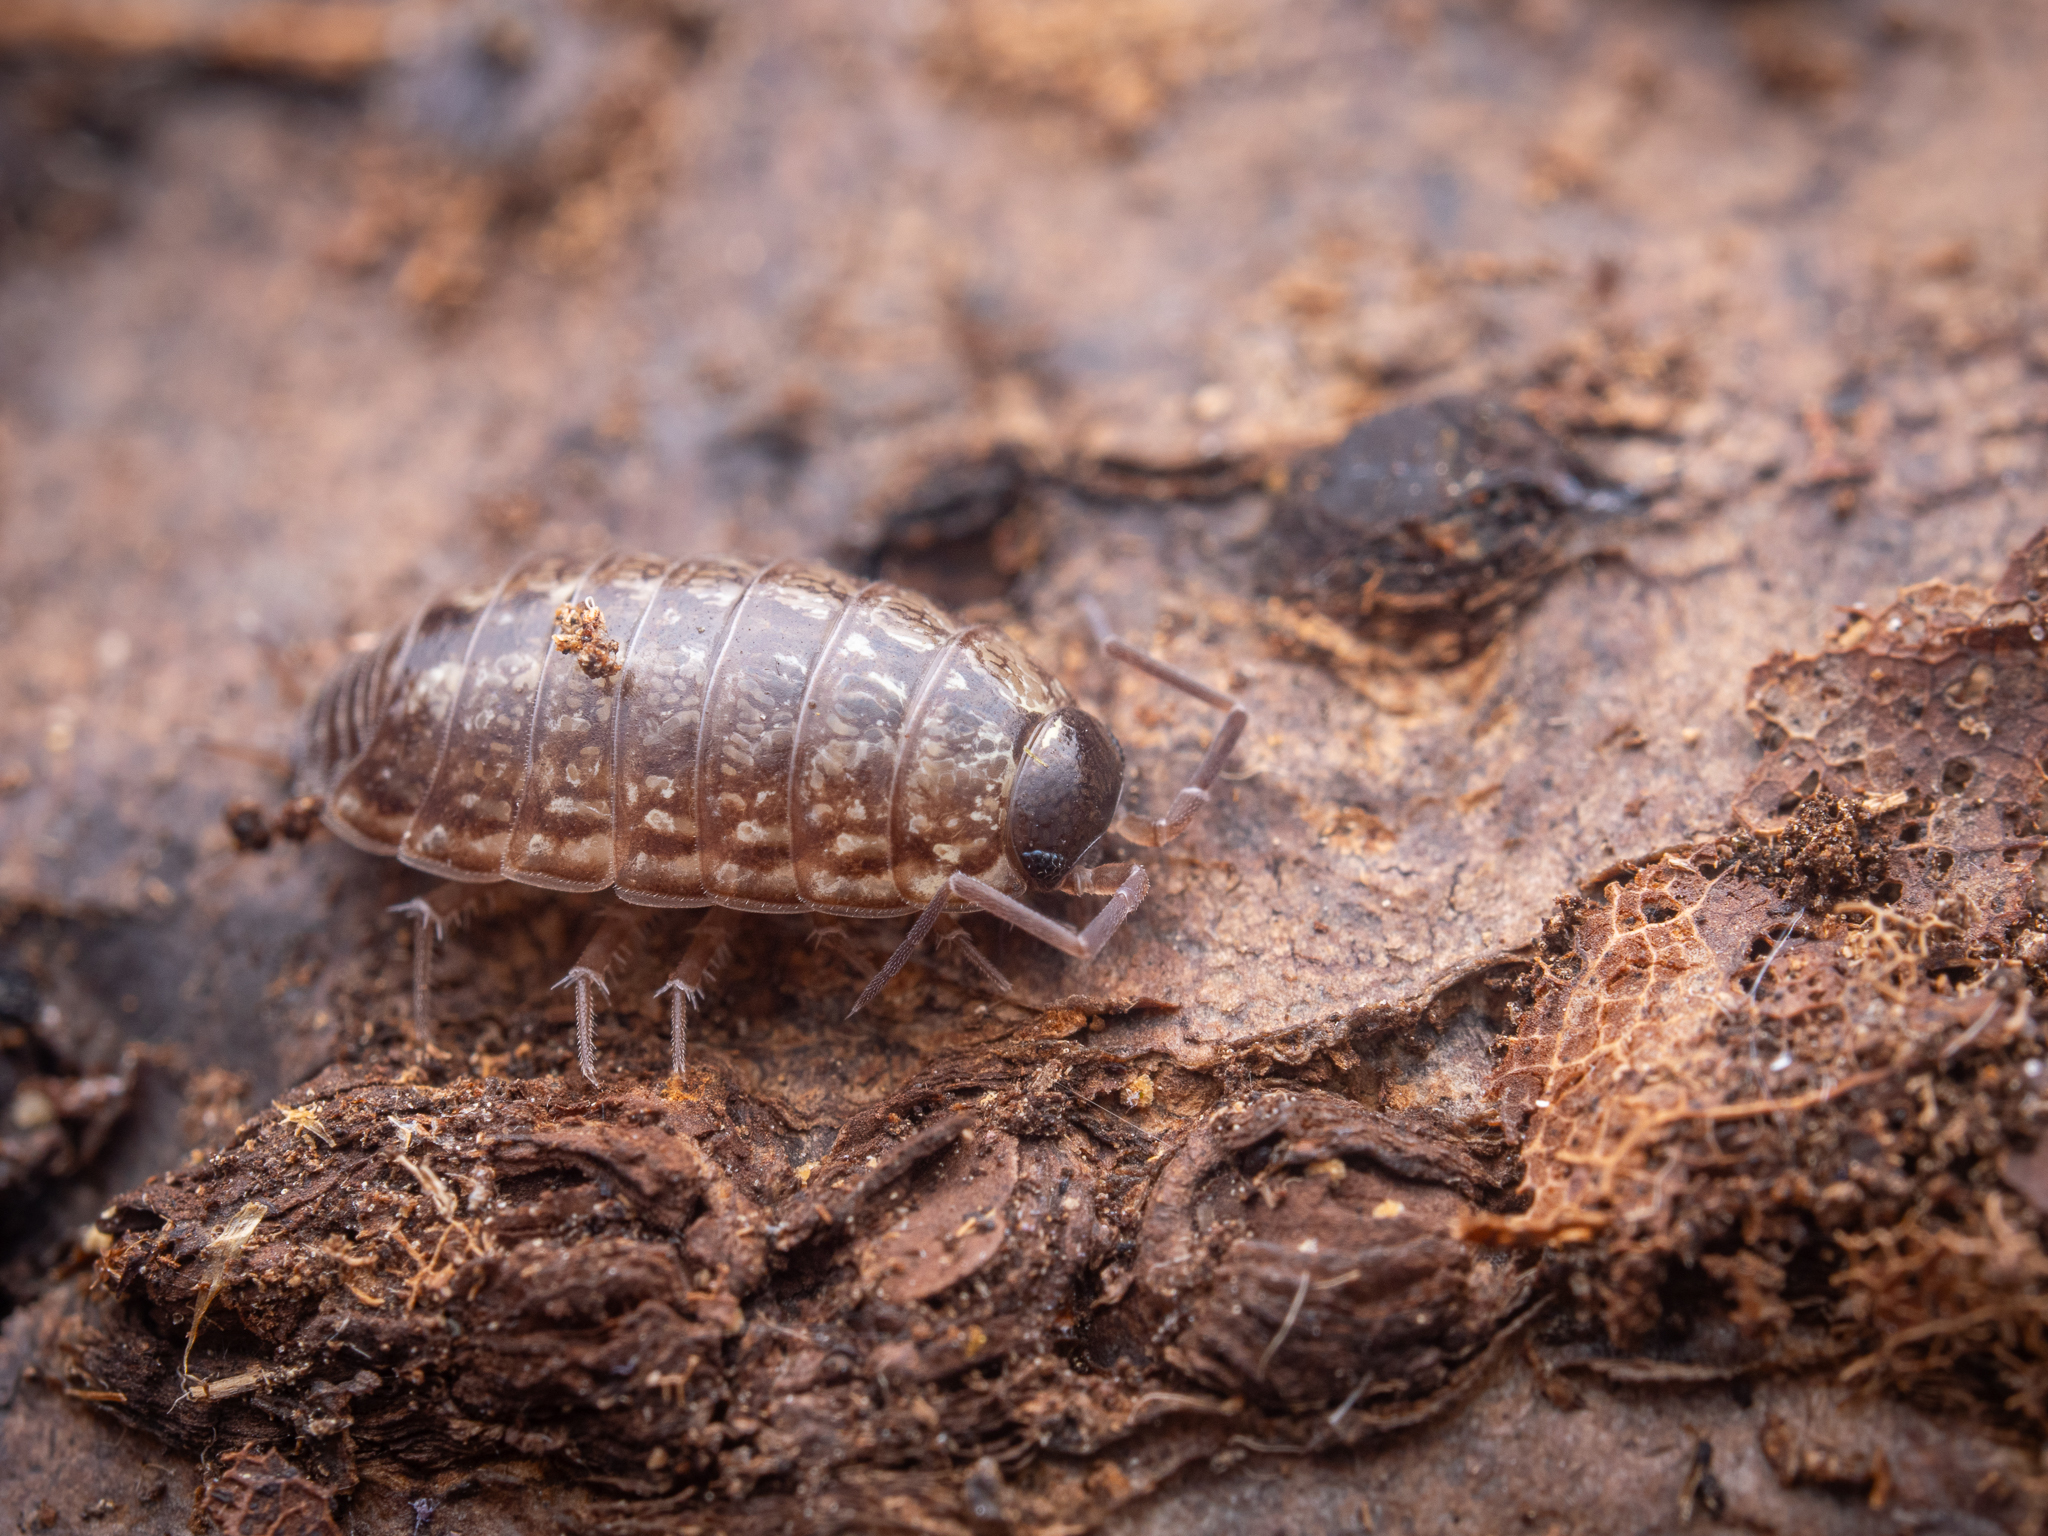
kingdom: Animalia
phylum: Arthropoda
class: Malacostraca
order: Isopoda
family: Philosciidae
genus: Philoscia
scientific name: Philoscia muscorum
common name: Common striped woodlouse
